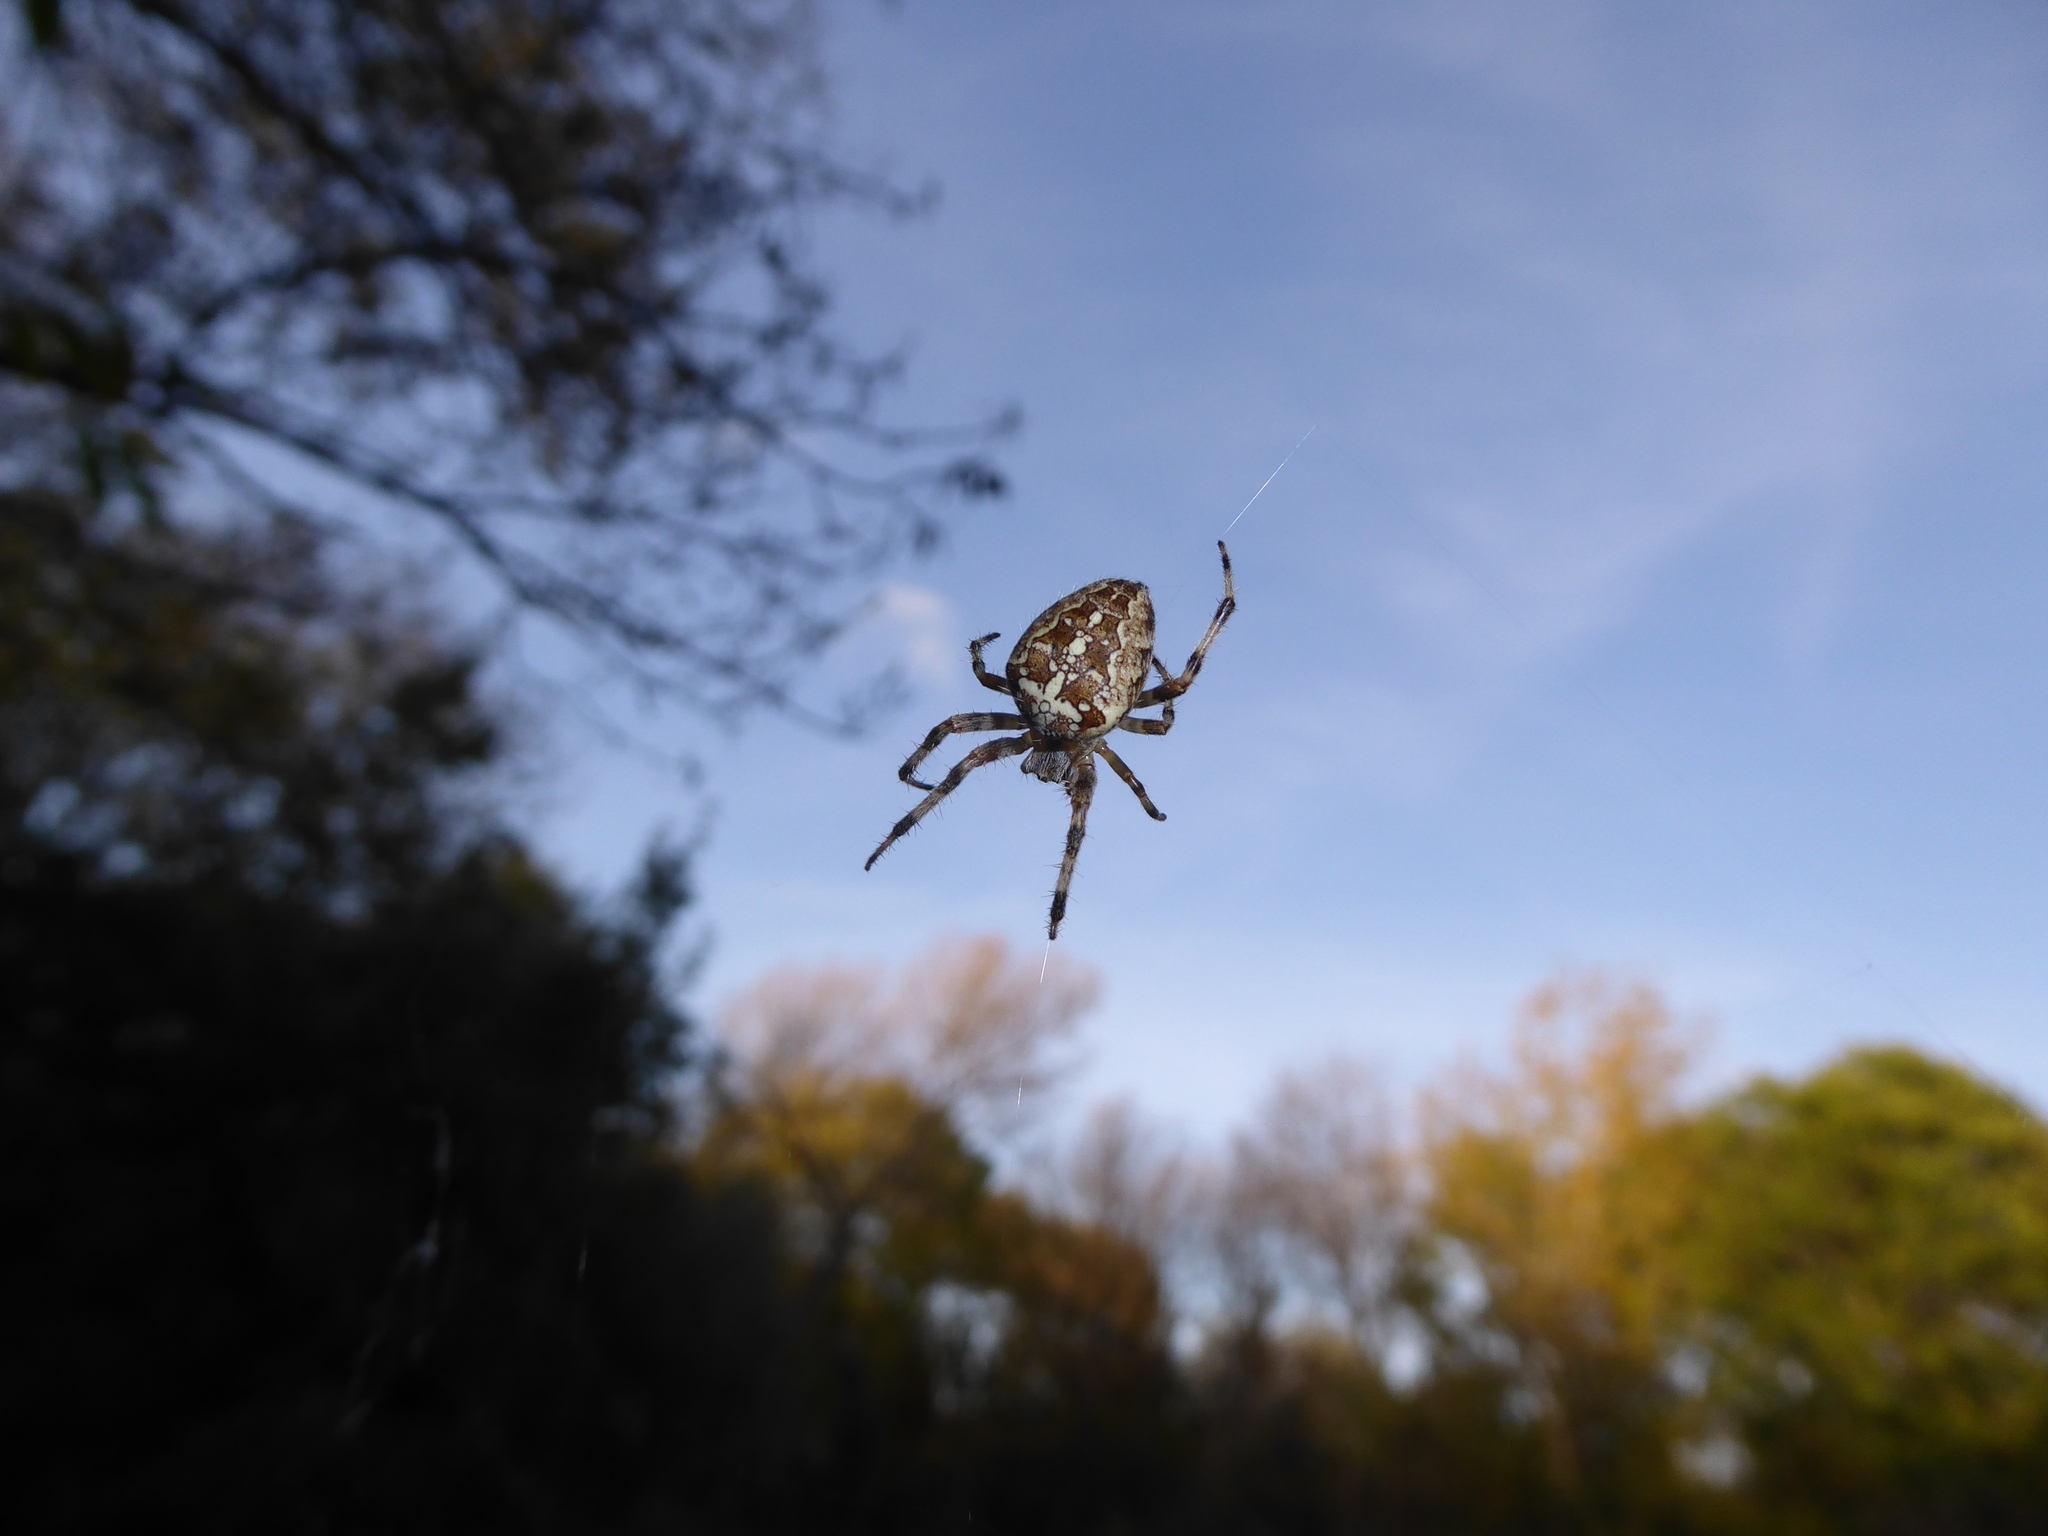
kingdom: Animalia
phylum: Arthropoda
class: Arachnida
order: Araneae
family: Araneidae
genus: Araneus
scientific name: Araneus diadematus
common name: Cross orbweaver
